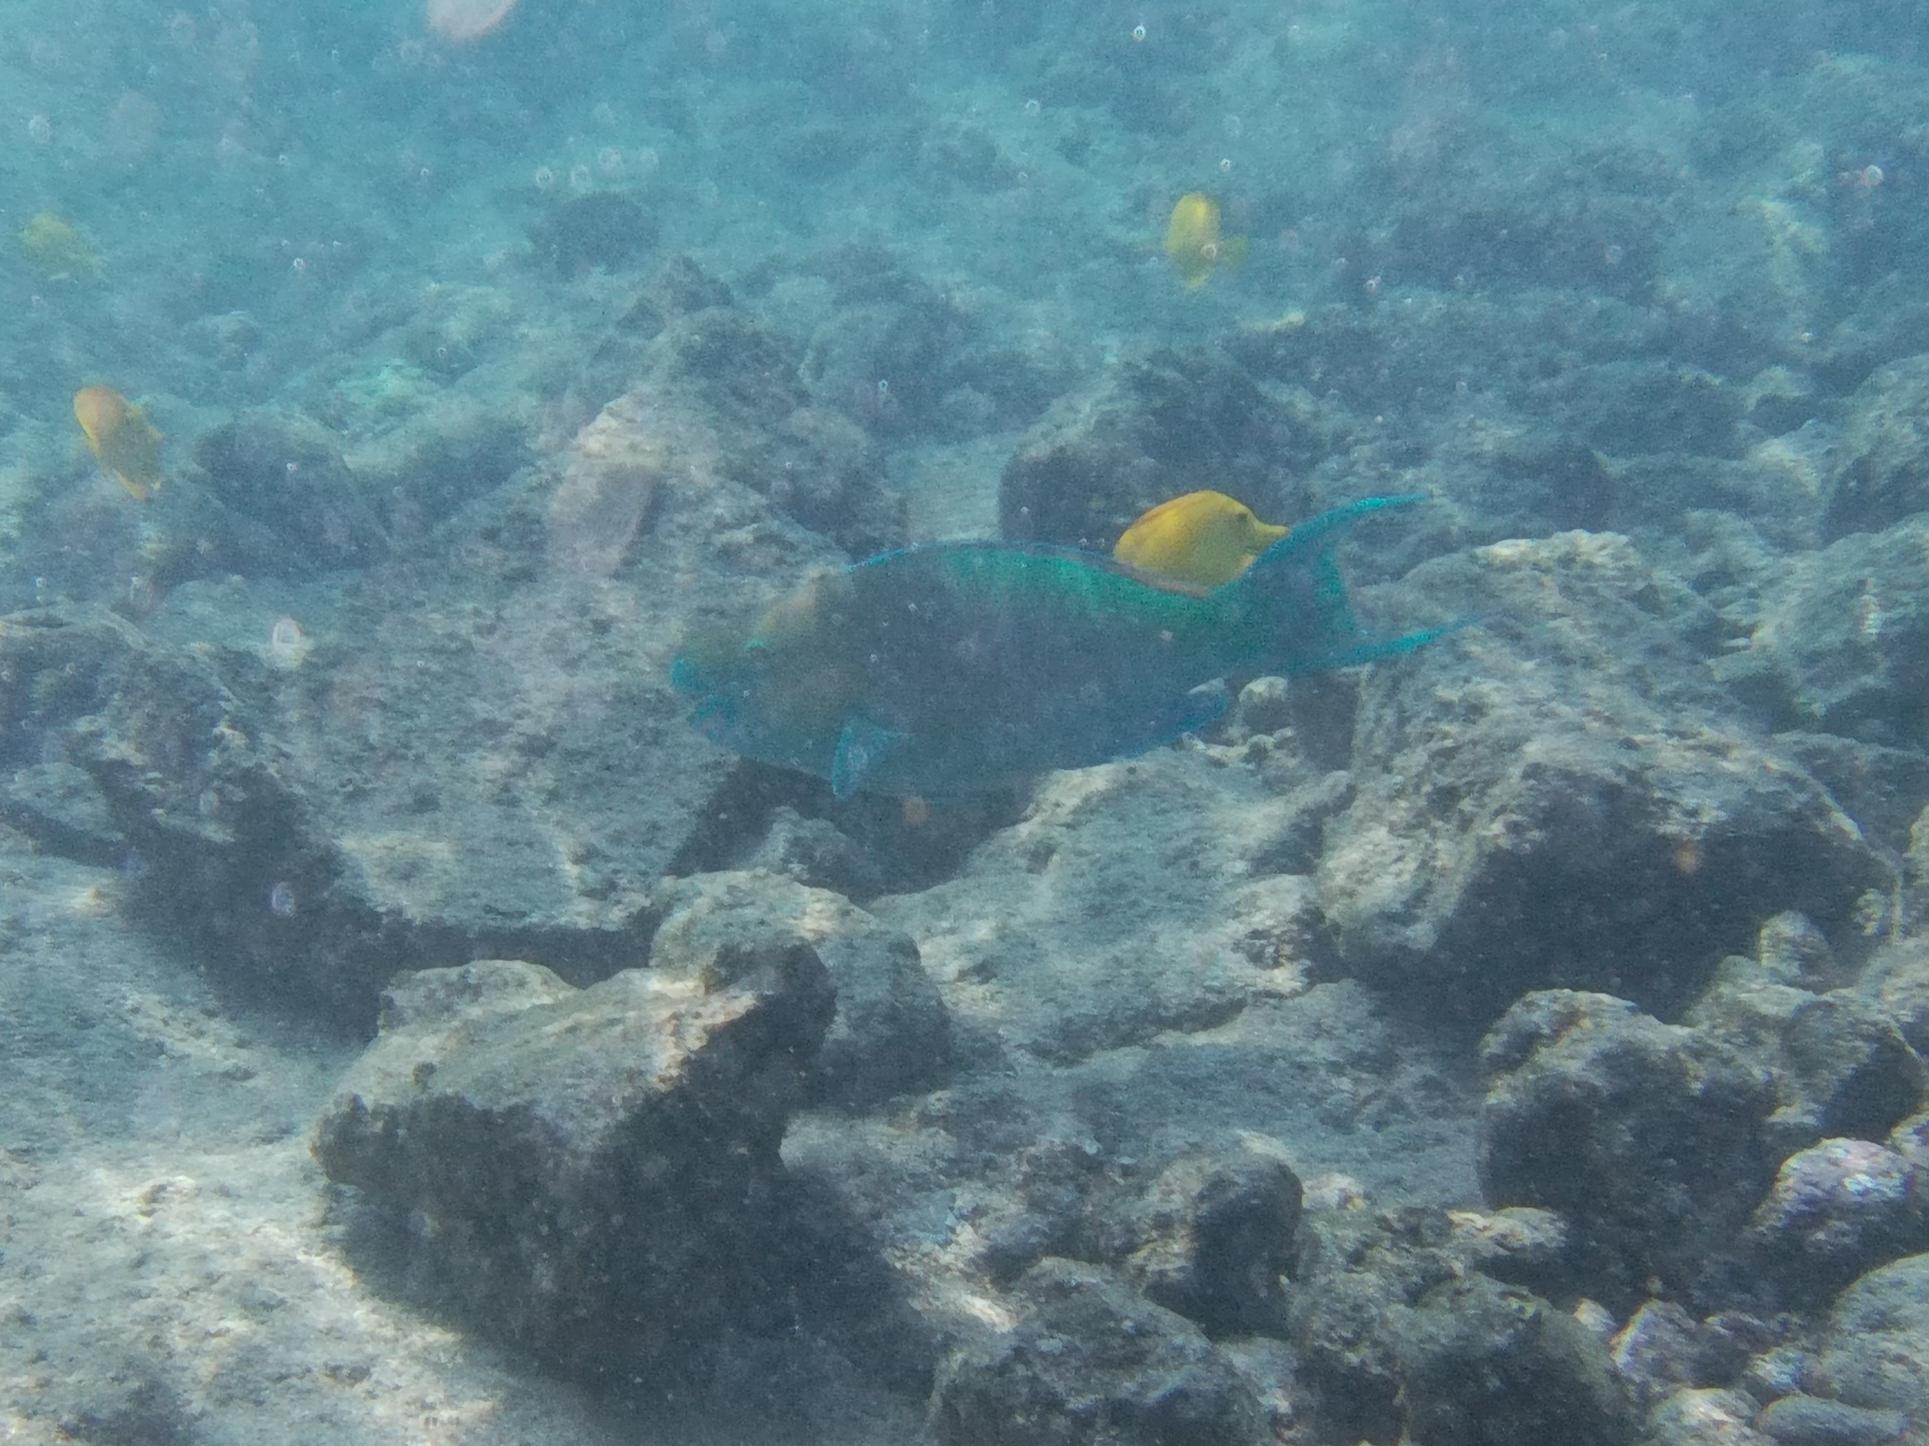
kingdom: Animalia
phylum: Chordata
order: Perciformes
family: Scaridae
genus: Scarus
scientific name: Scarus rubroviolaceus
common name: Ember parrotfish
